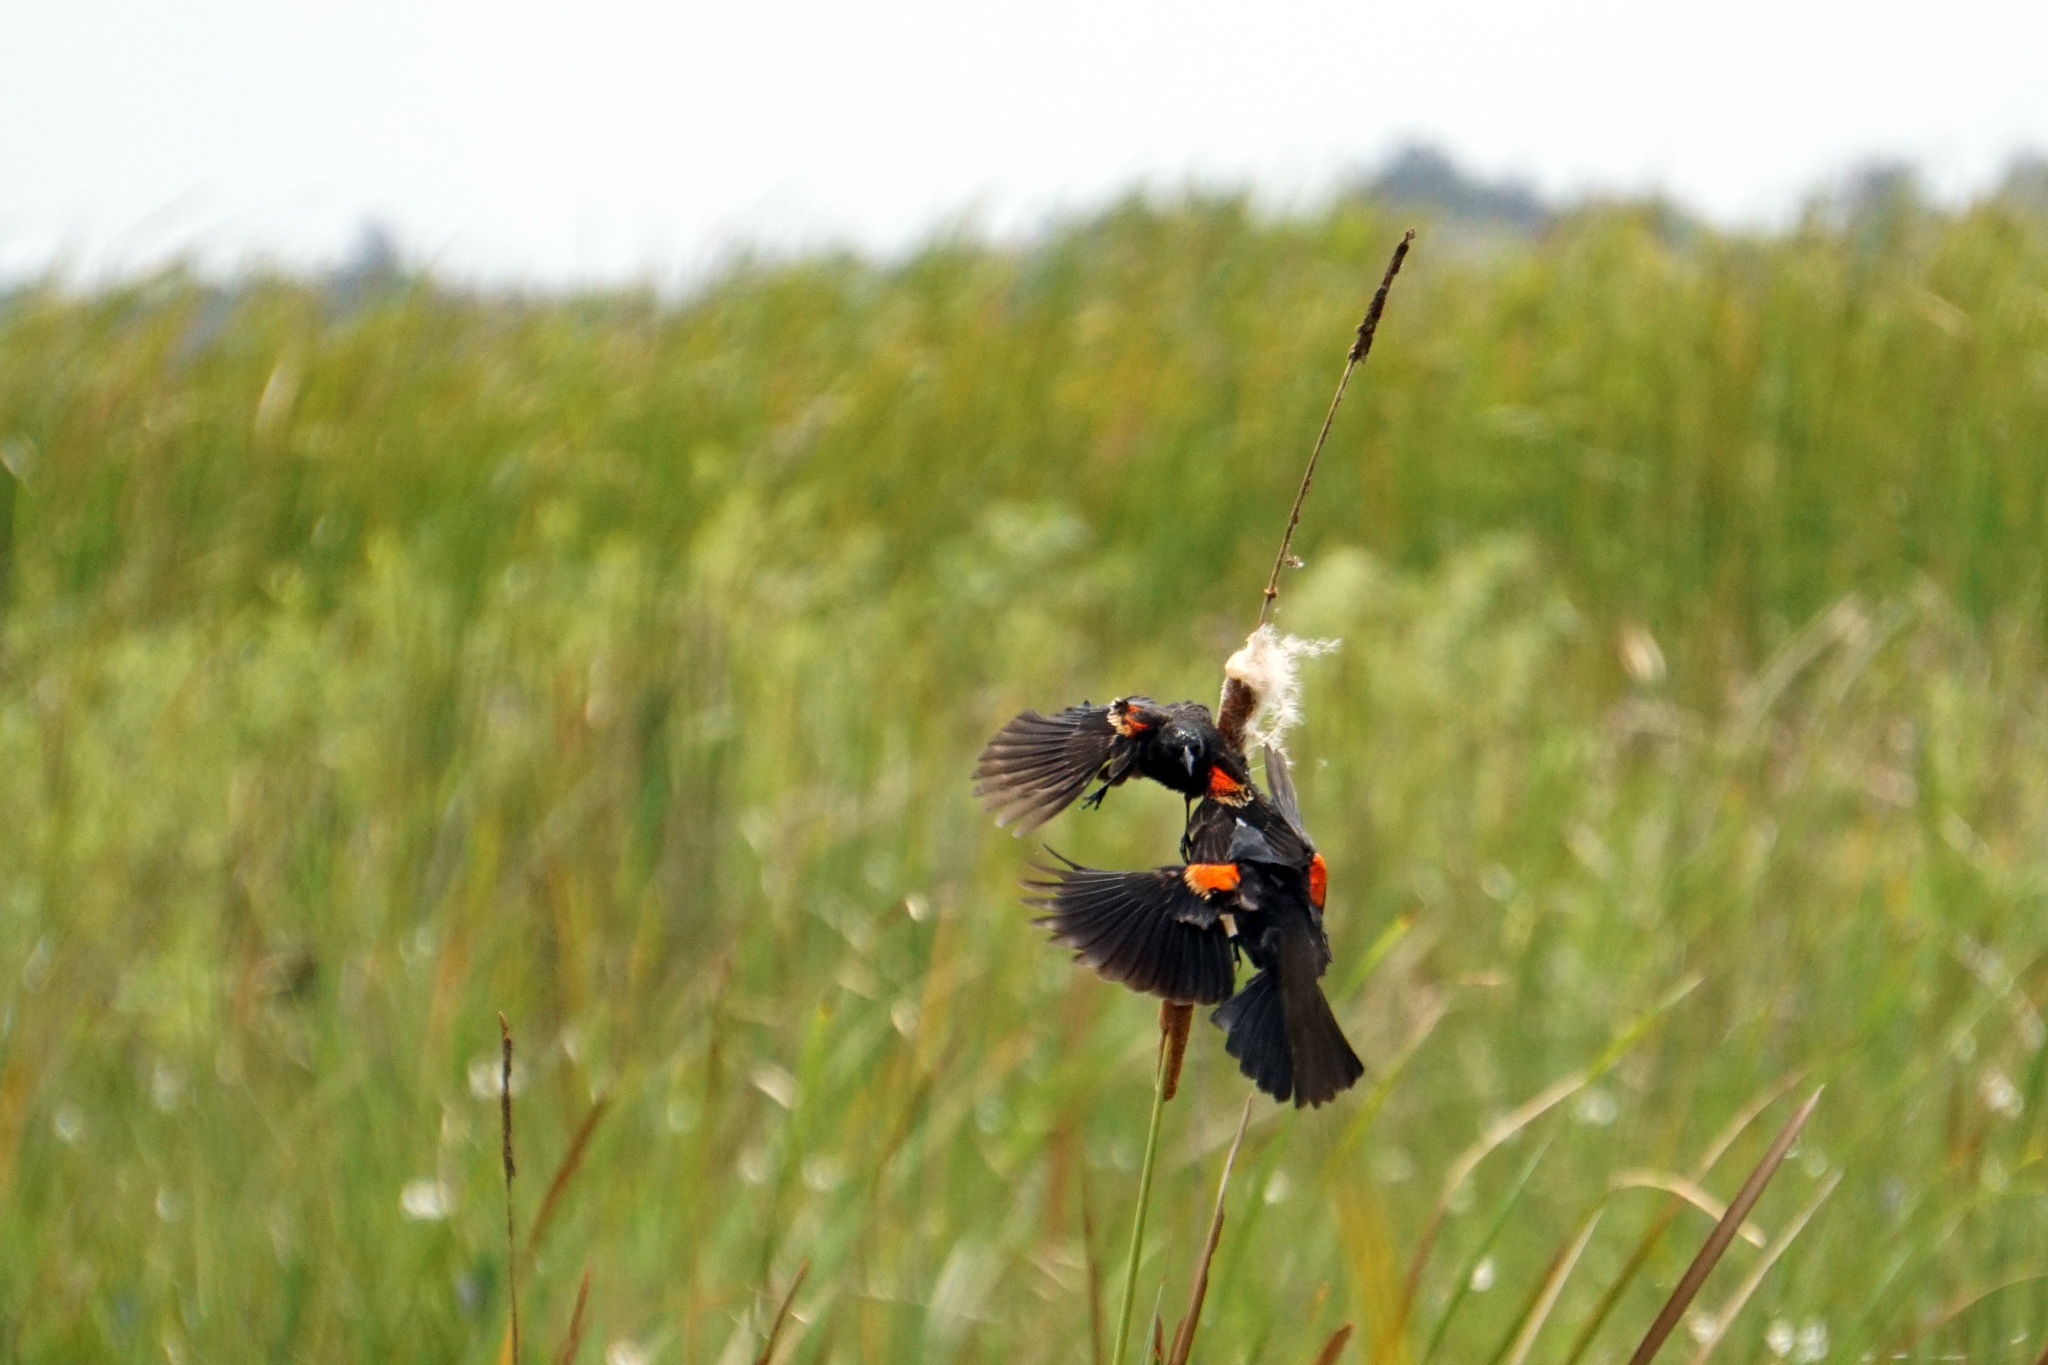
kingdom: Animalia
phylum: Chordata
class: Aves
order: Passeriformes
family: Icteridae
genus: Agelaius
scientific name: Agelaius phoeniceus
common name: Red-winged blackbird
